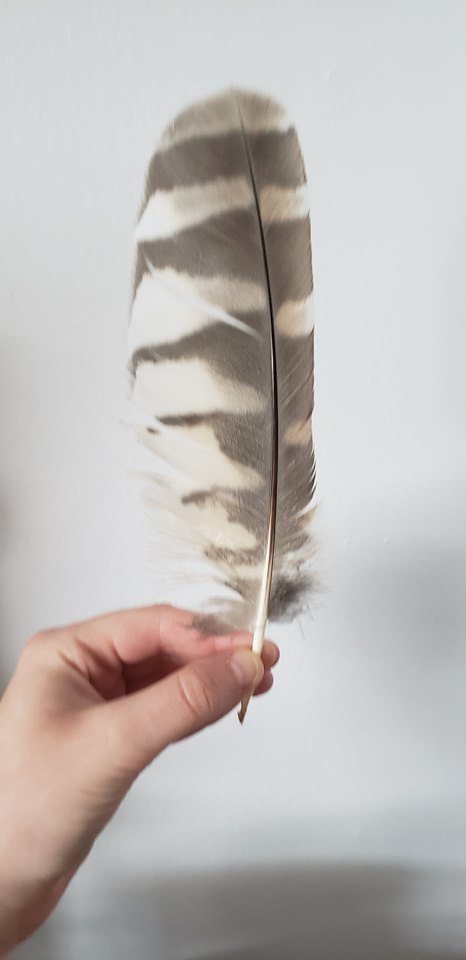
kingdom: Animalia
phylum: Chordata
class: Aves
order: Strigiformes
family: Strigidae
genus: Strix
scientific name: Strix varia
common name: Barred owl
